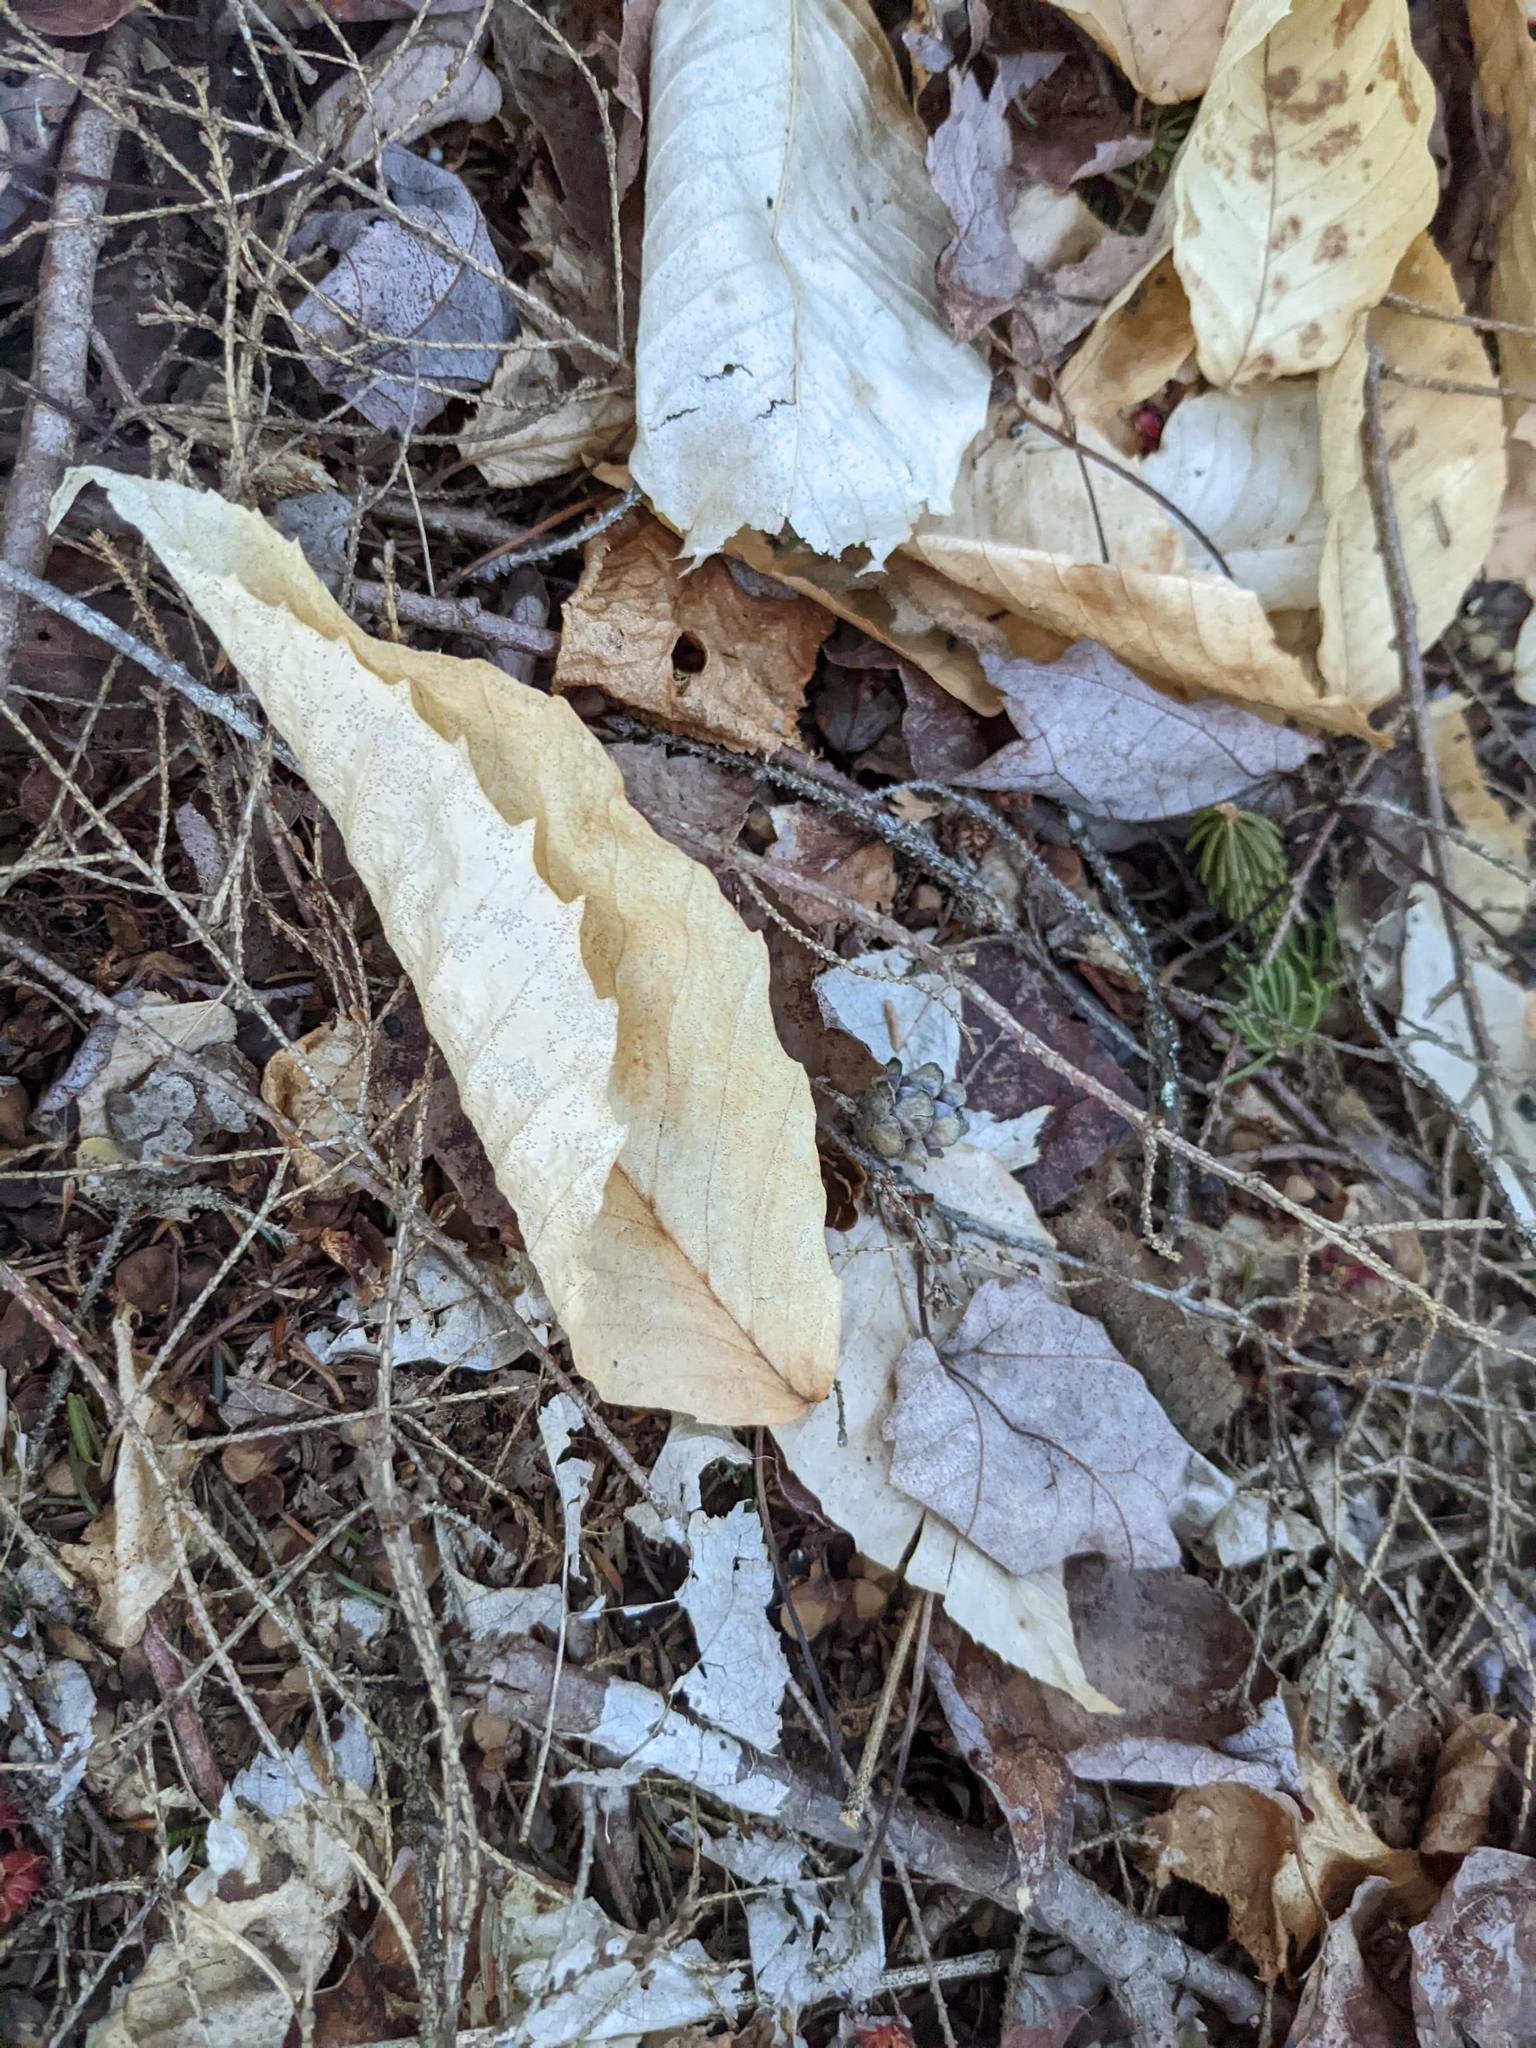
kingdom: Plantae
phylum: Tracheophyta
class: Magnoliopsida
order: Fagales
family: Fagaceae
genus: Fagus
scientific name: Fagus grandifolia
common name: American beech
